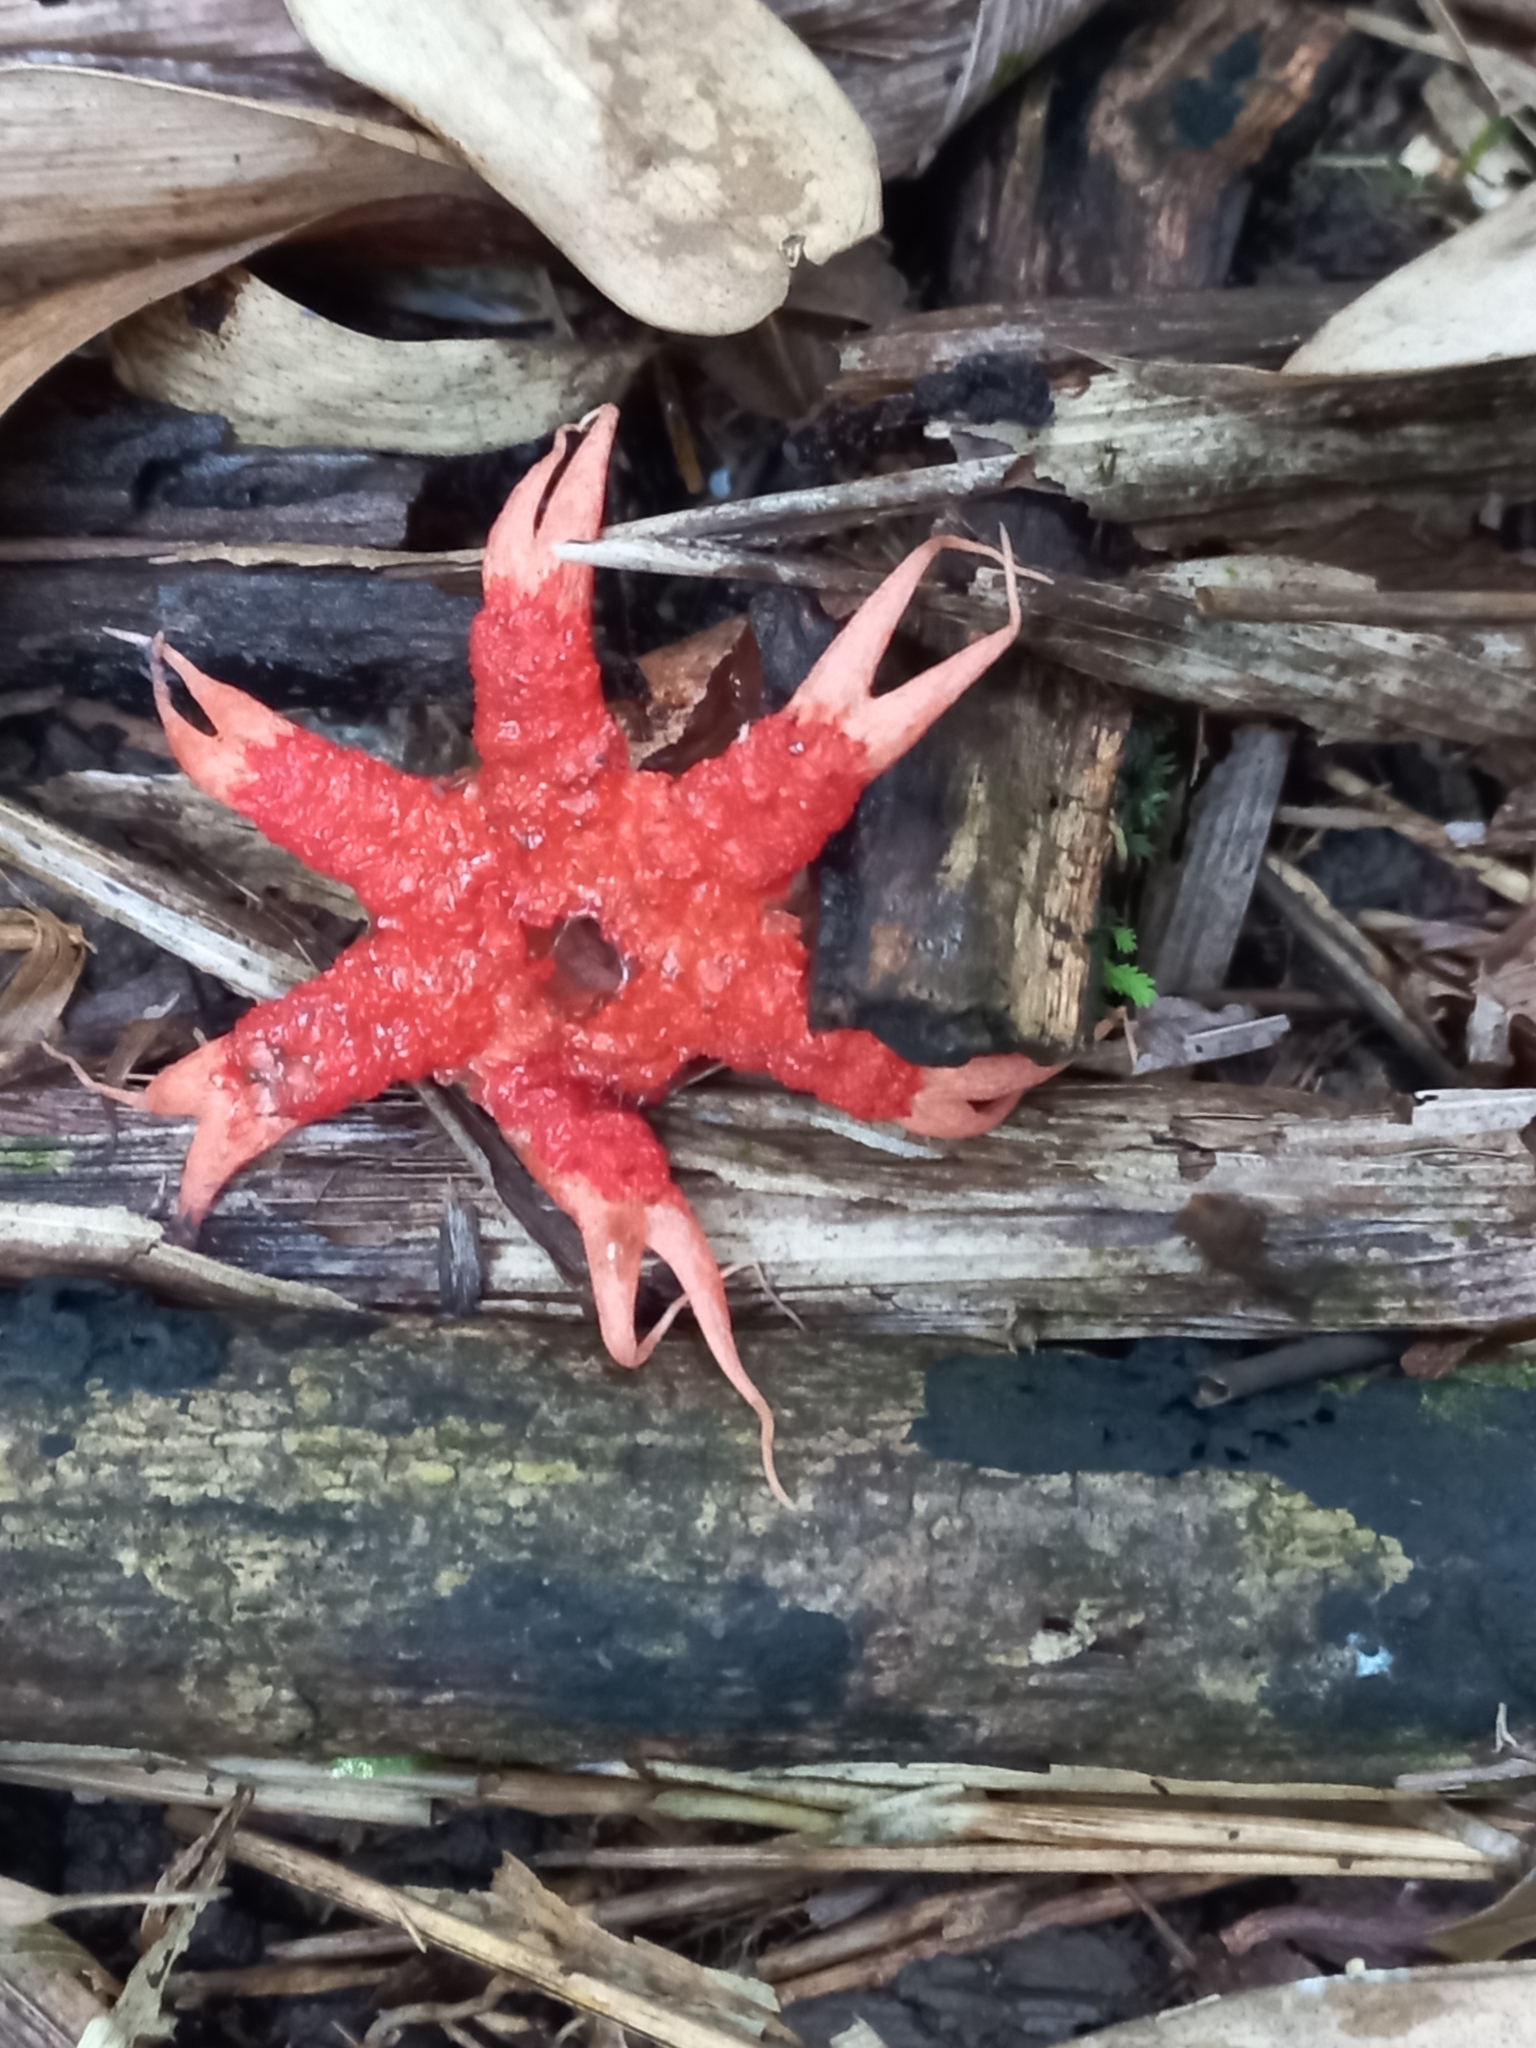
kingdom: Fungi
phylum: Basidiomycota
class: Agaricomycetes
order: Phallales
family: Phallaceae
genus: Aseroe
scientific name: Aseroe rubra
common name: Starfish fungus
